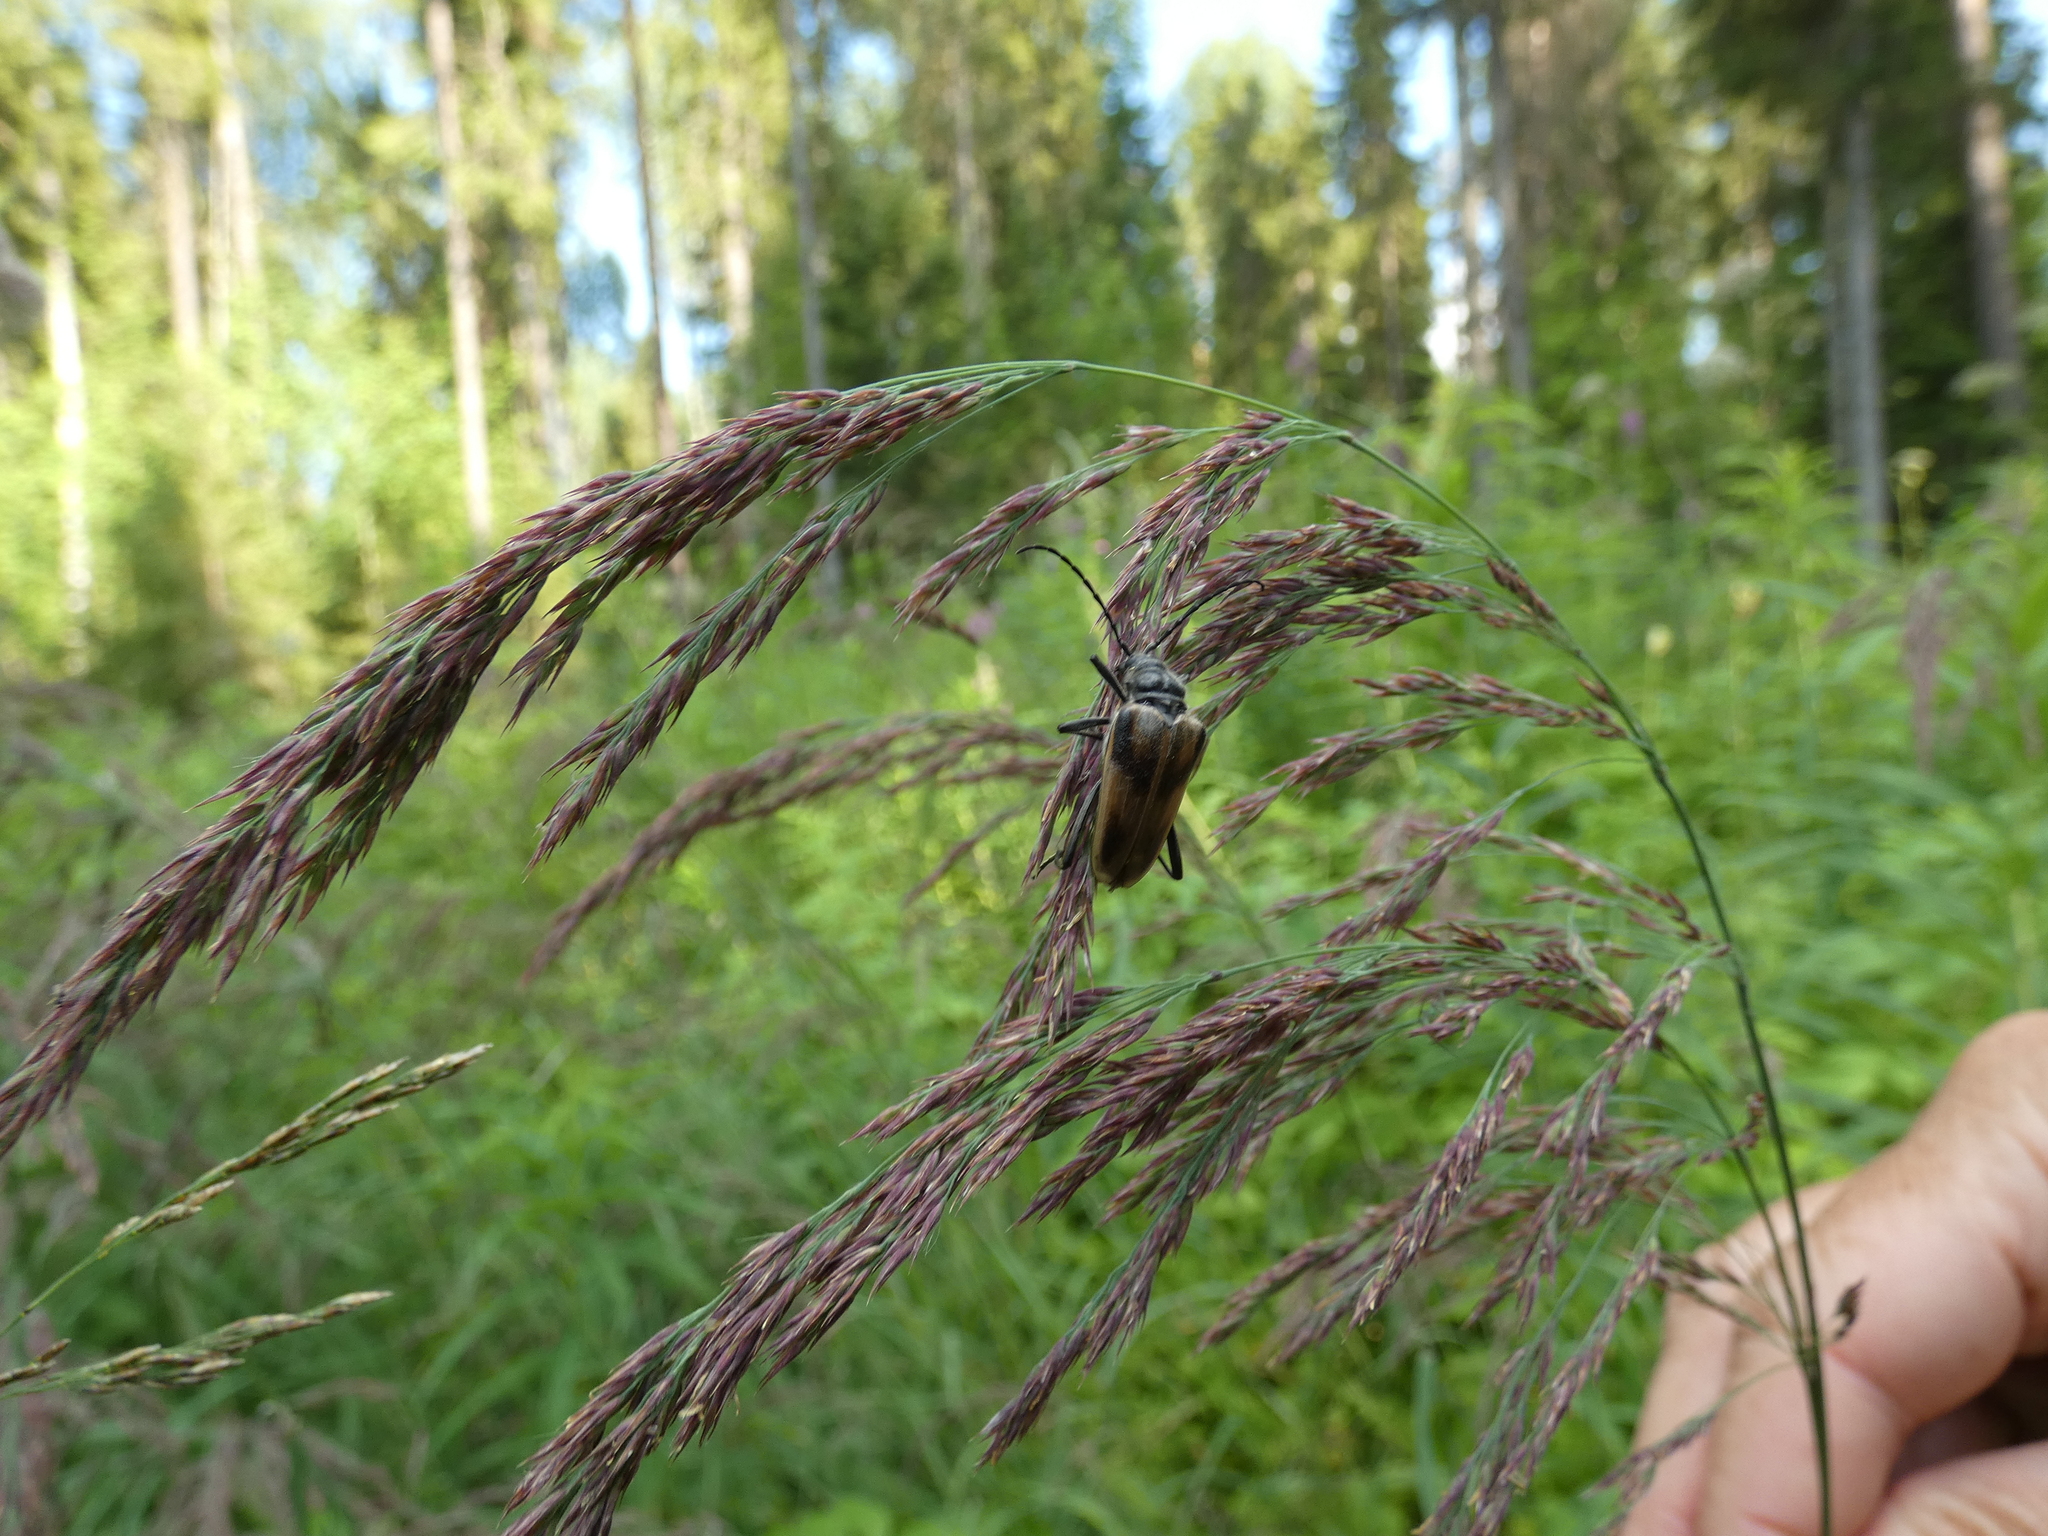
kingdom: Animalia
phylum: Arthropoda
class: Insecta
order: Coleoptera
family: Cerambycidae
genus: Pachyta
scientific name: Pachyta lamed
